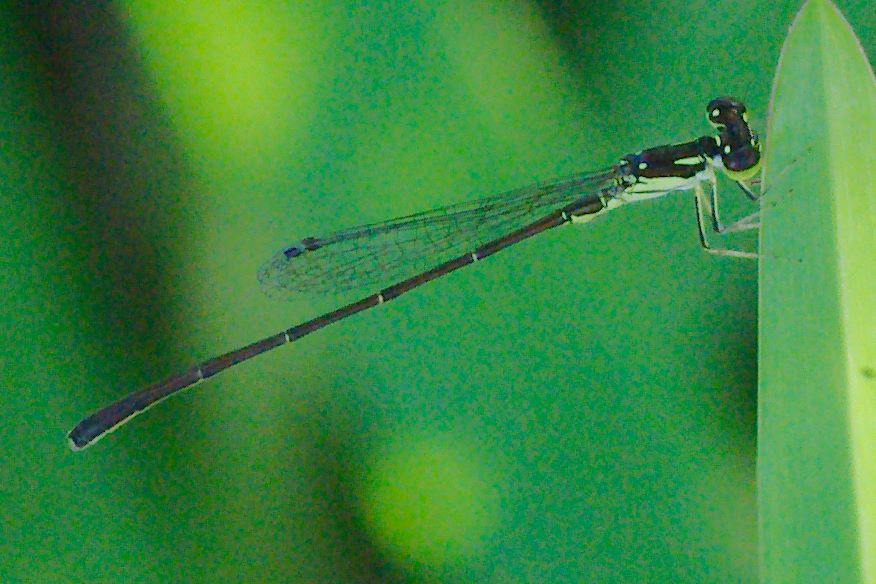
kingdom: Animalia
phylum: Arthropoda
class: Insecta
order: Odonata
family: Coenagrionidae
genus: Ischnura
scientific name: Ischnura posita
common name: Fragile forktail
